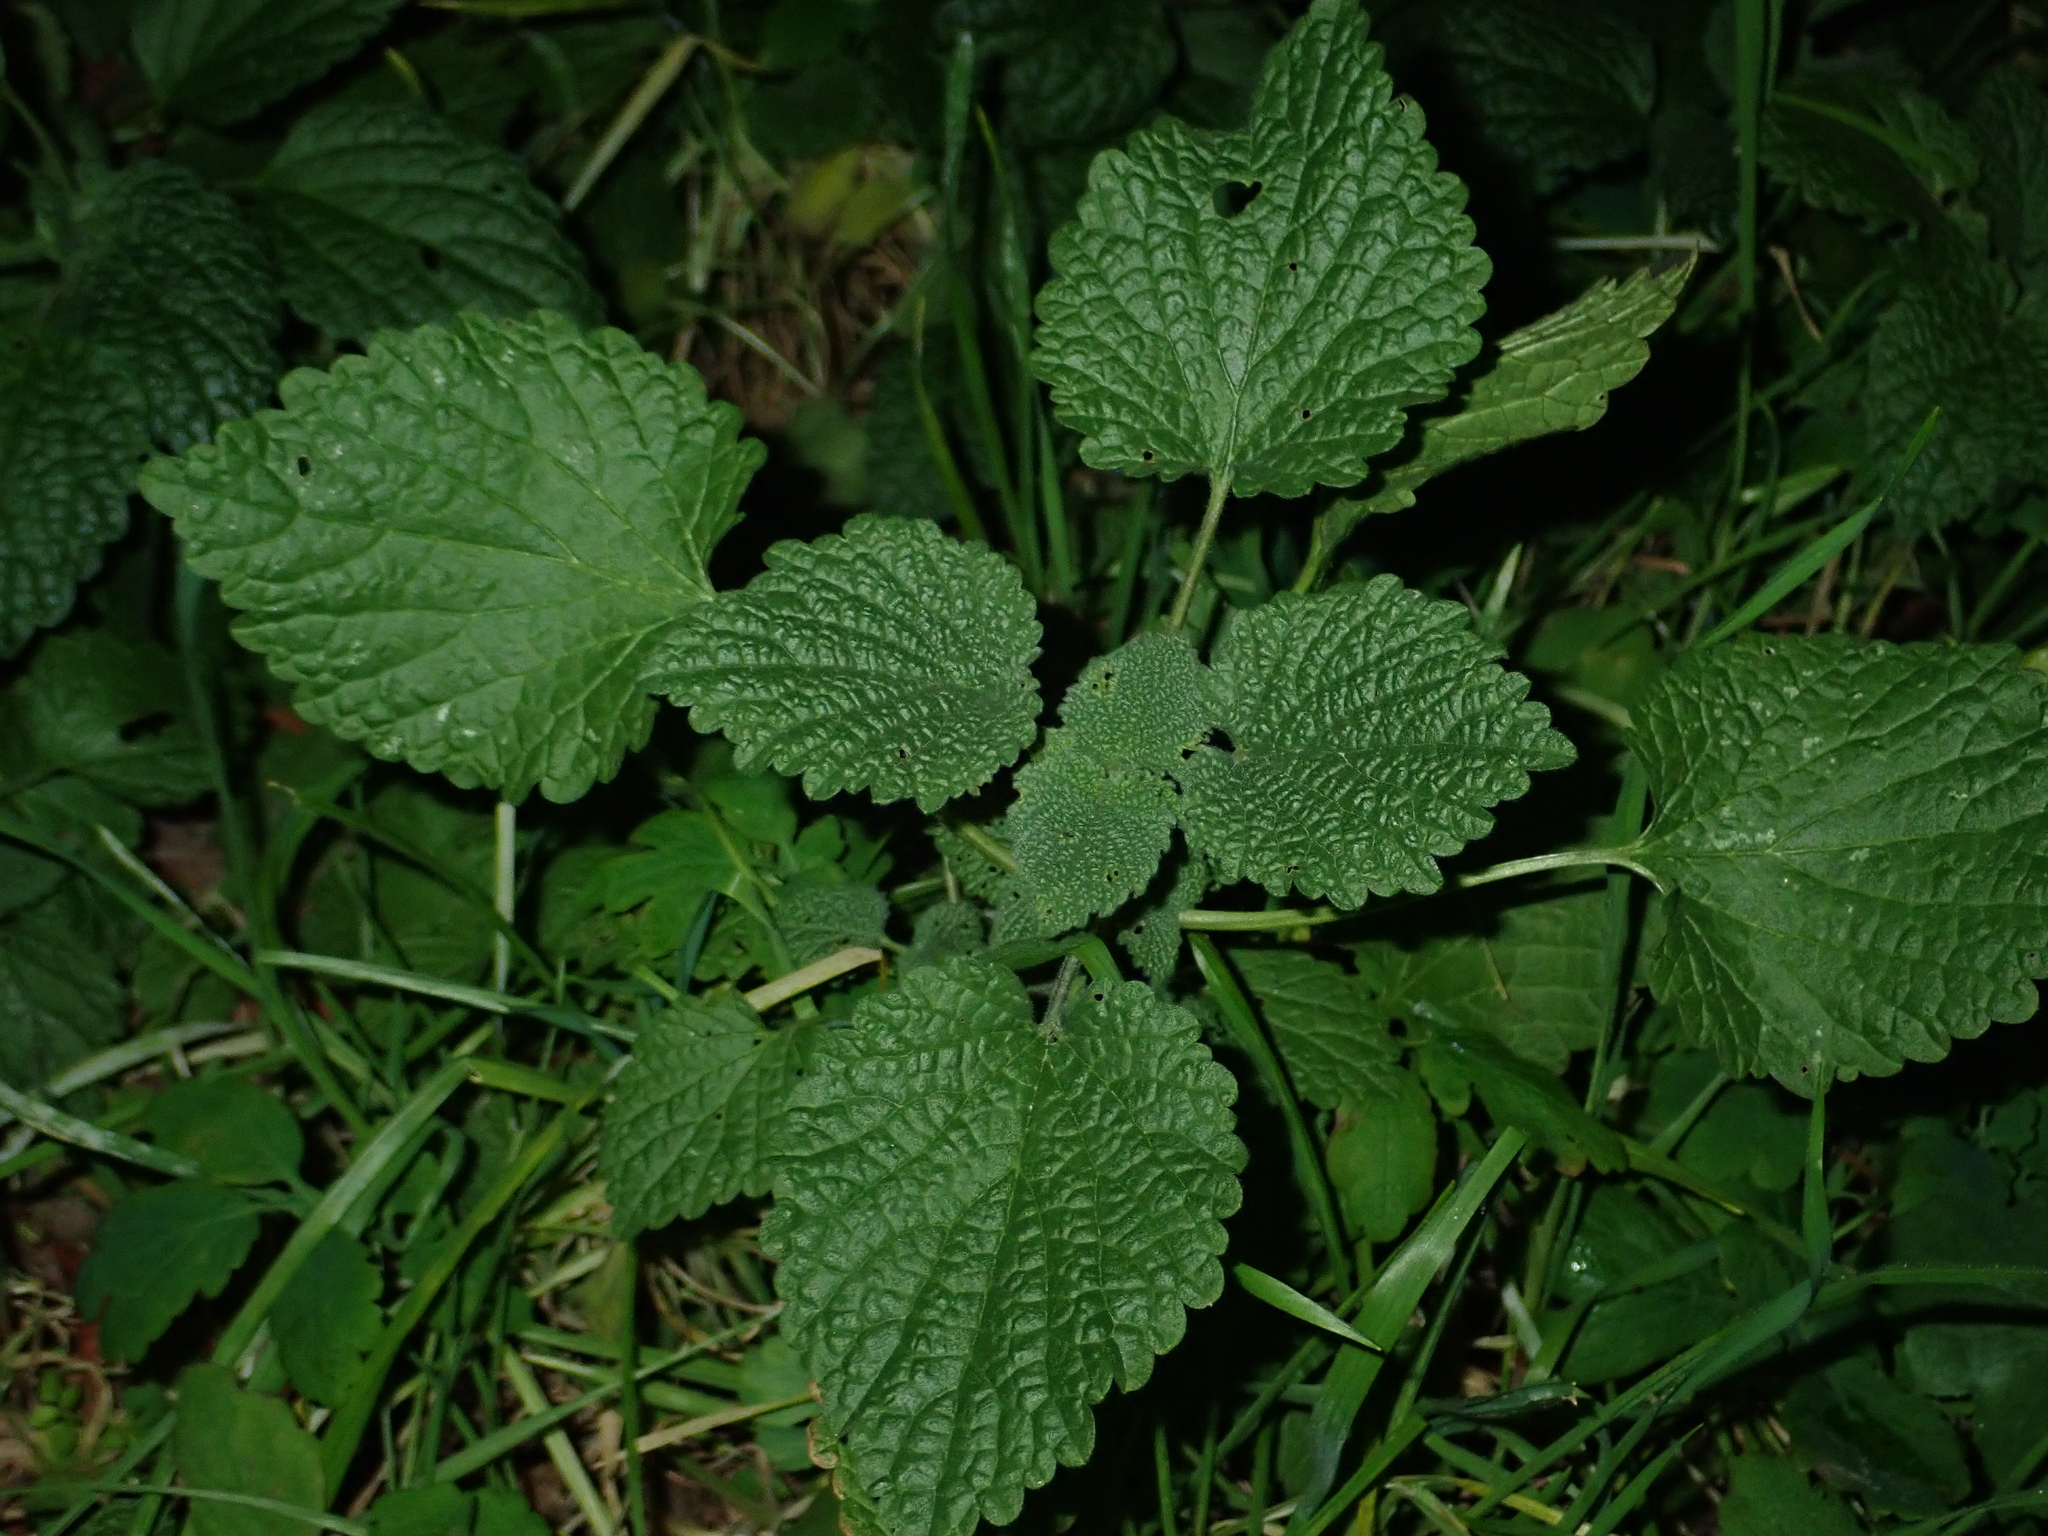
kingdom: Plantae
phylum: Tracheophyta
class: Magnoliopsida
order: Lamiales
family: Lamiaceae
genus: Ballota
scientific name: Ballota nigra
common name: Black horehound
